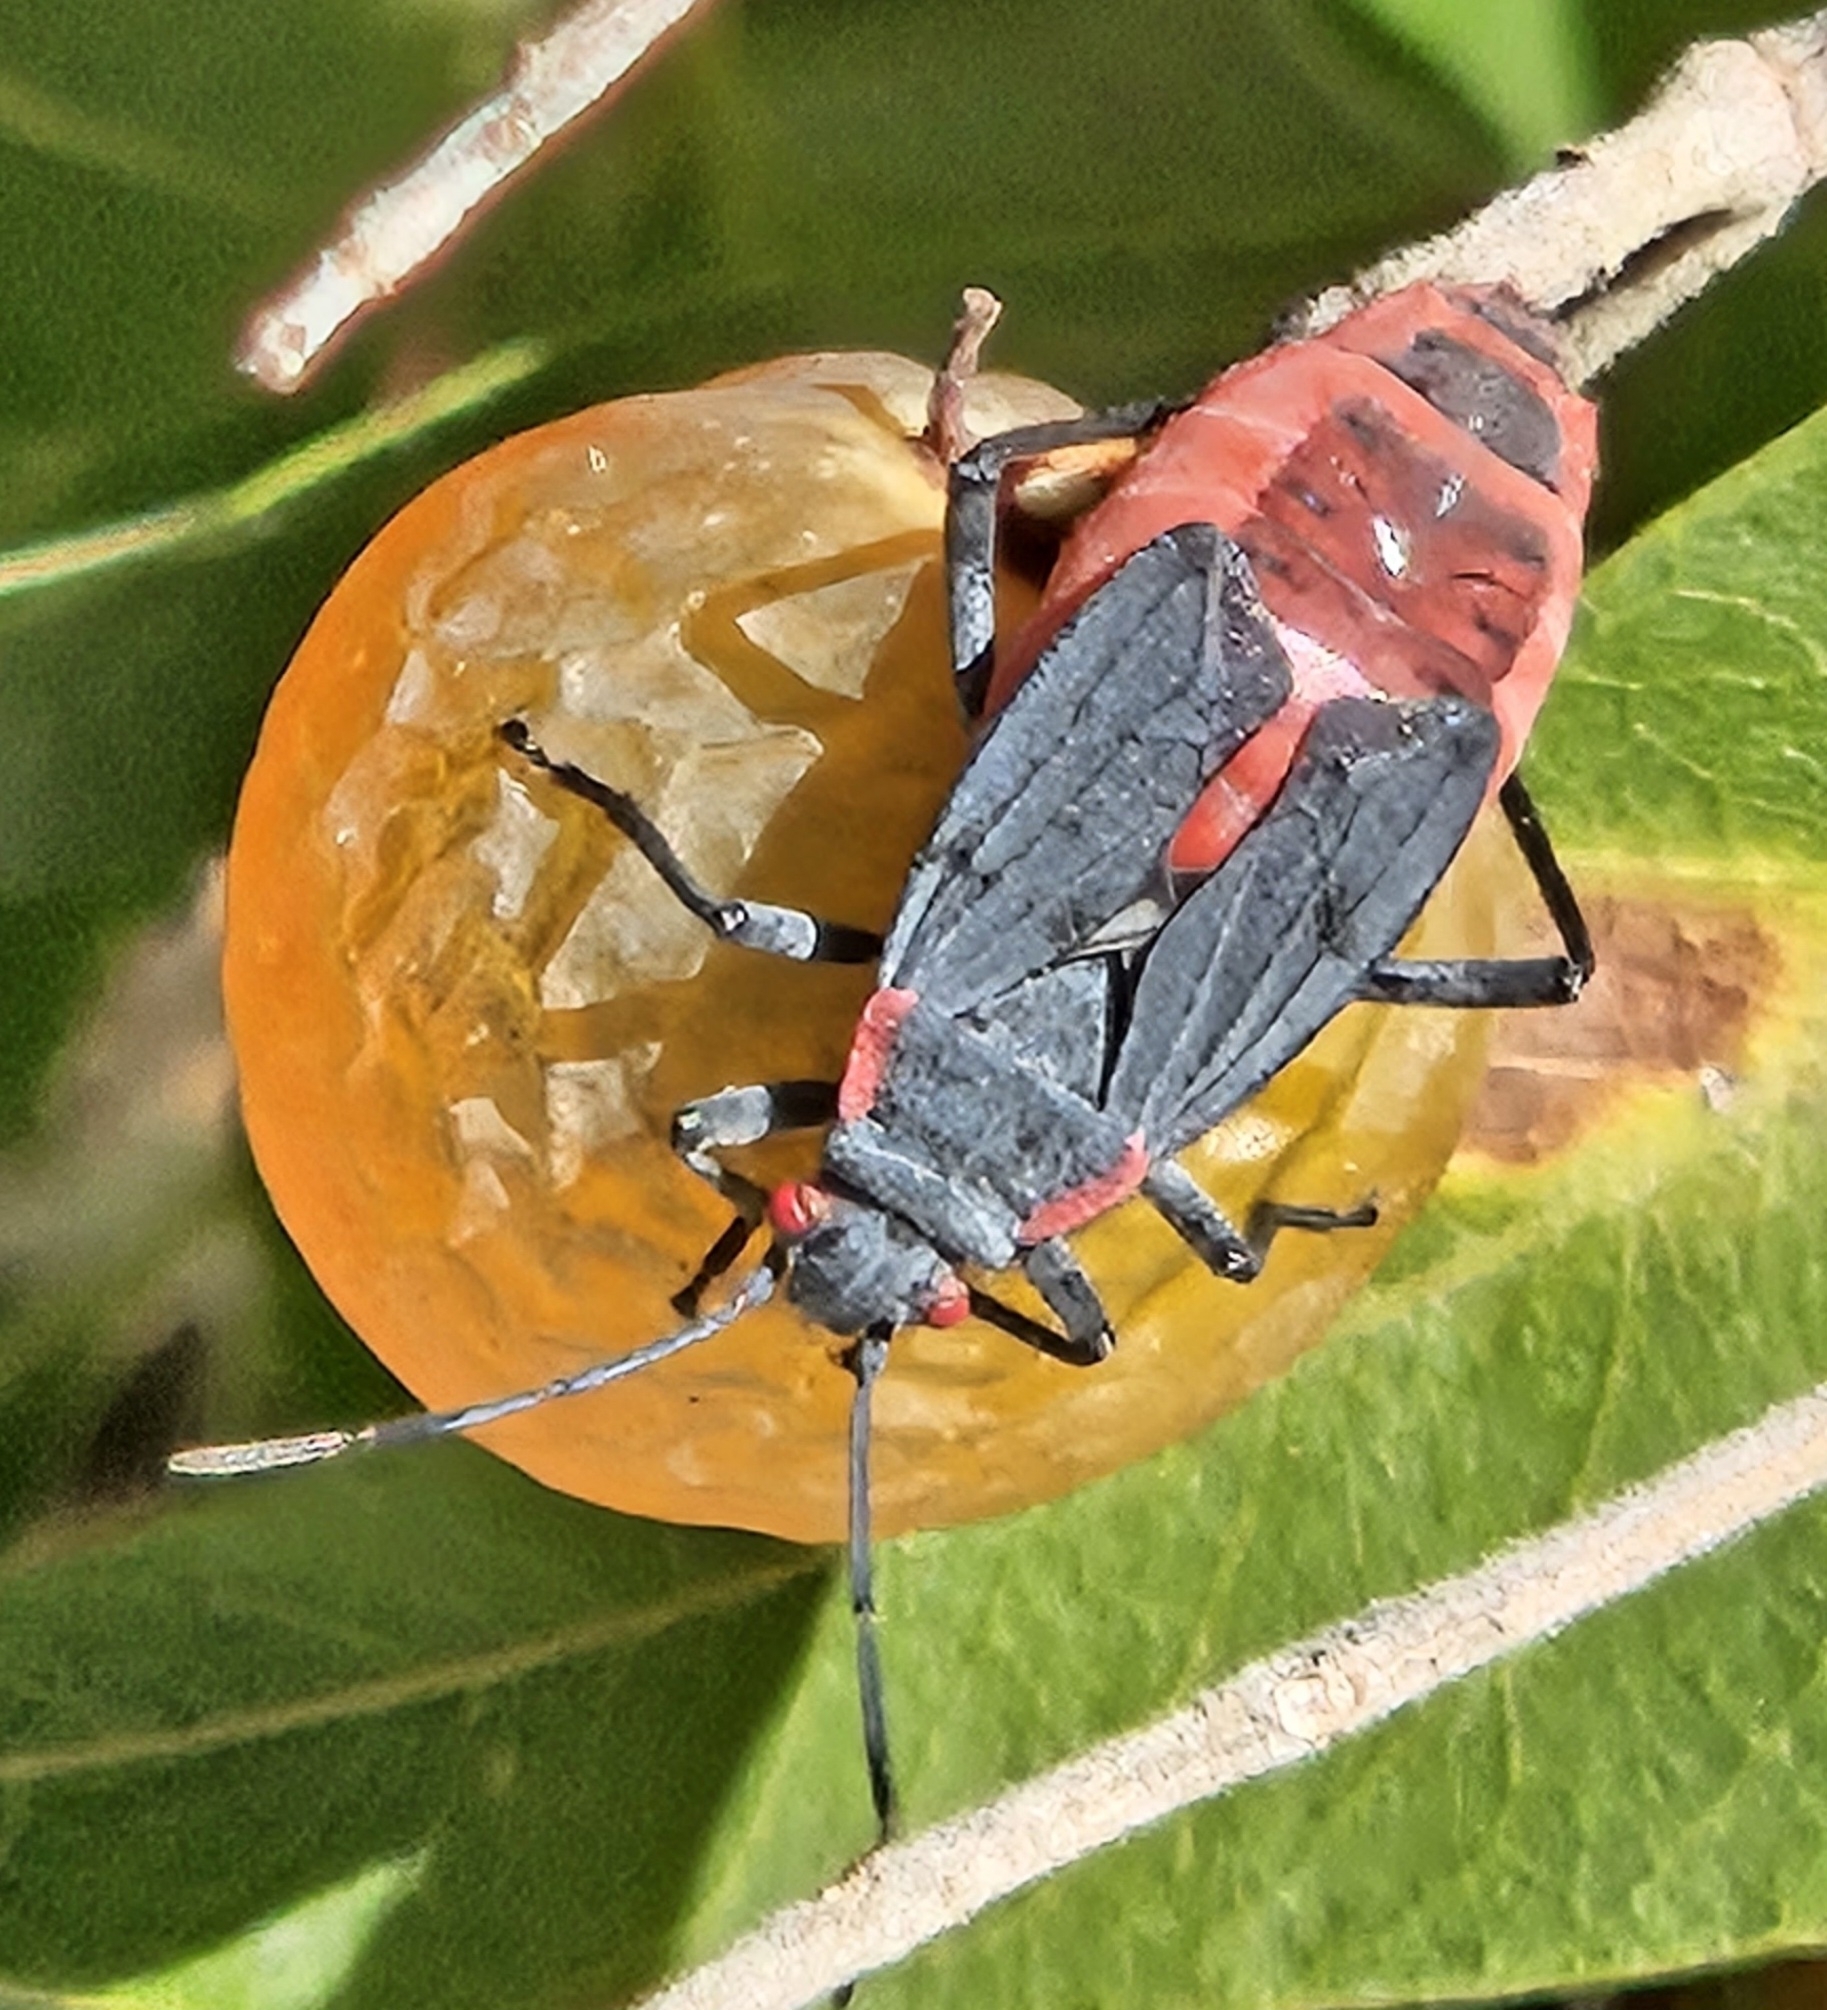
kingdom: Animalia
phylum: Arthropoda
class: Insecta
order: Hemiptera
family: Rhopalidae
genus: Jadera
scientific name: Jadera haematoloma
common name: Red-shouldered bug
